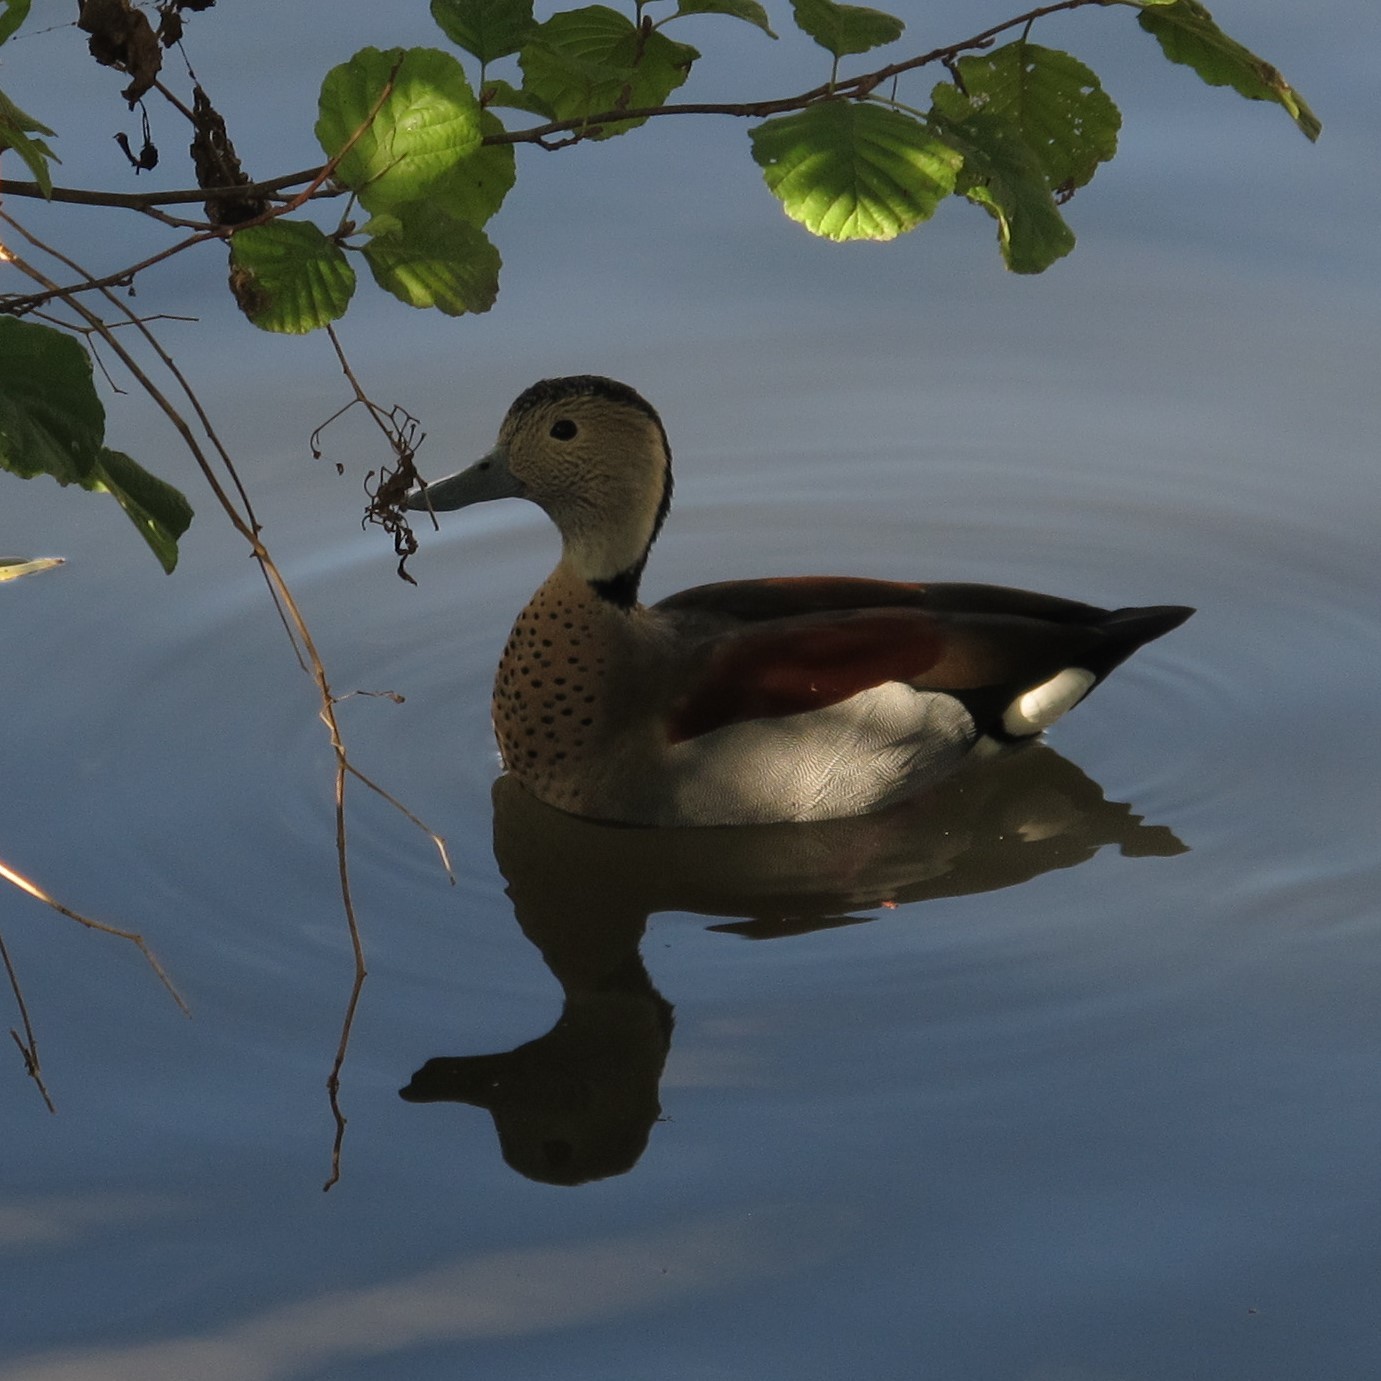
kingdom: Animalia
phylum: Chordata
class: Aves
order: Anseriformes
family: Anatidae
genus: Callonetta
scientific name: Callonetta leucophrys
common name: Ringed teal
